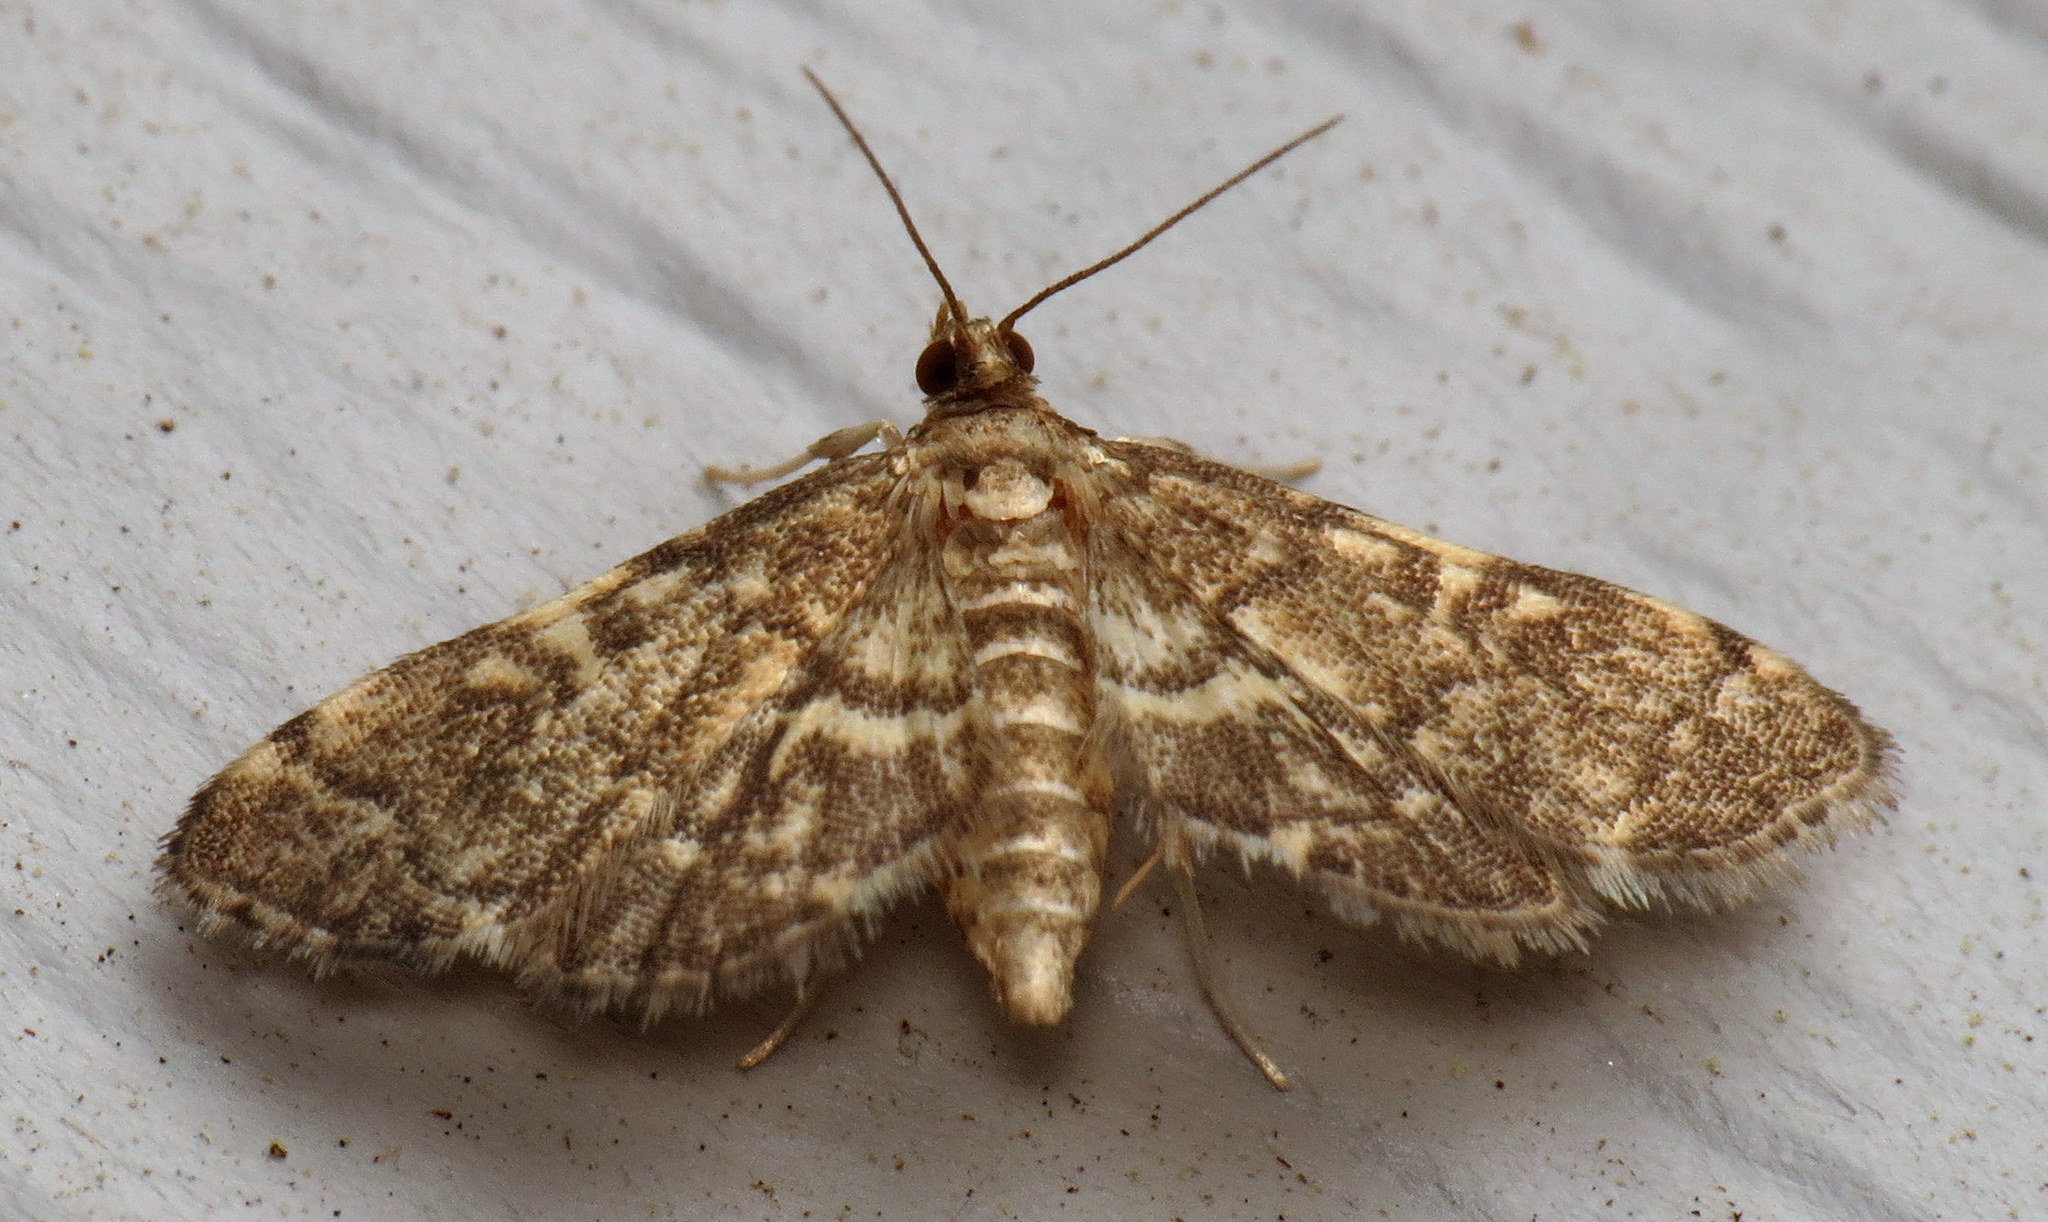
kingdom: Animalia
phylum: Arthropoda
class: Insecta
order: Lepidoptera
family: Crambidae
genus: Anageshna
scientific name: Anageshna primordialis
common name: Yellow-spotted webworm moth
